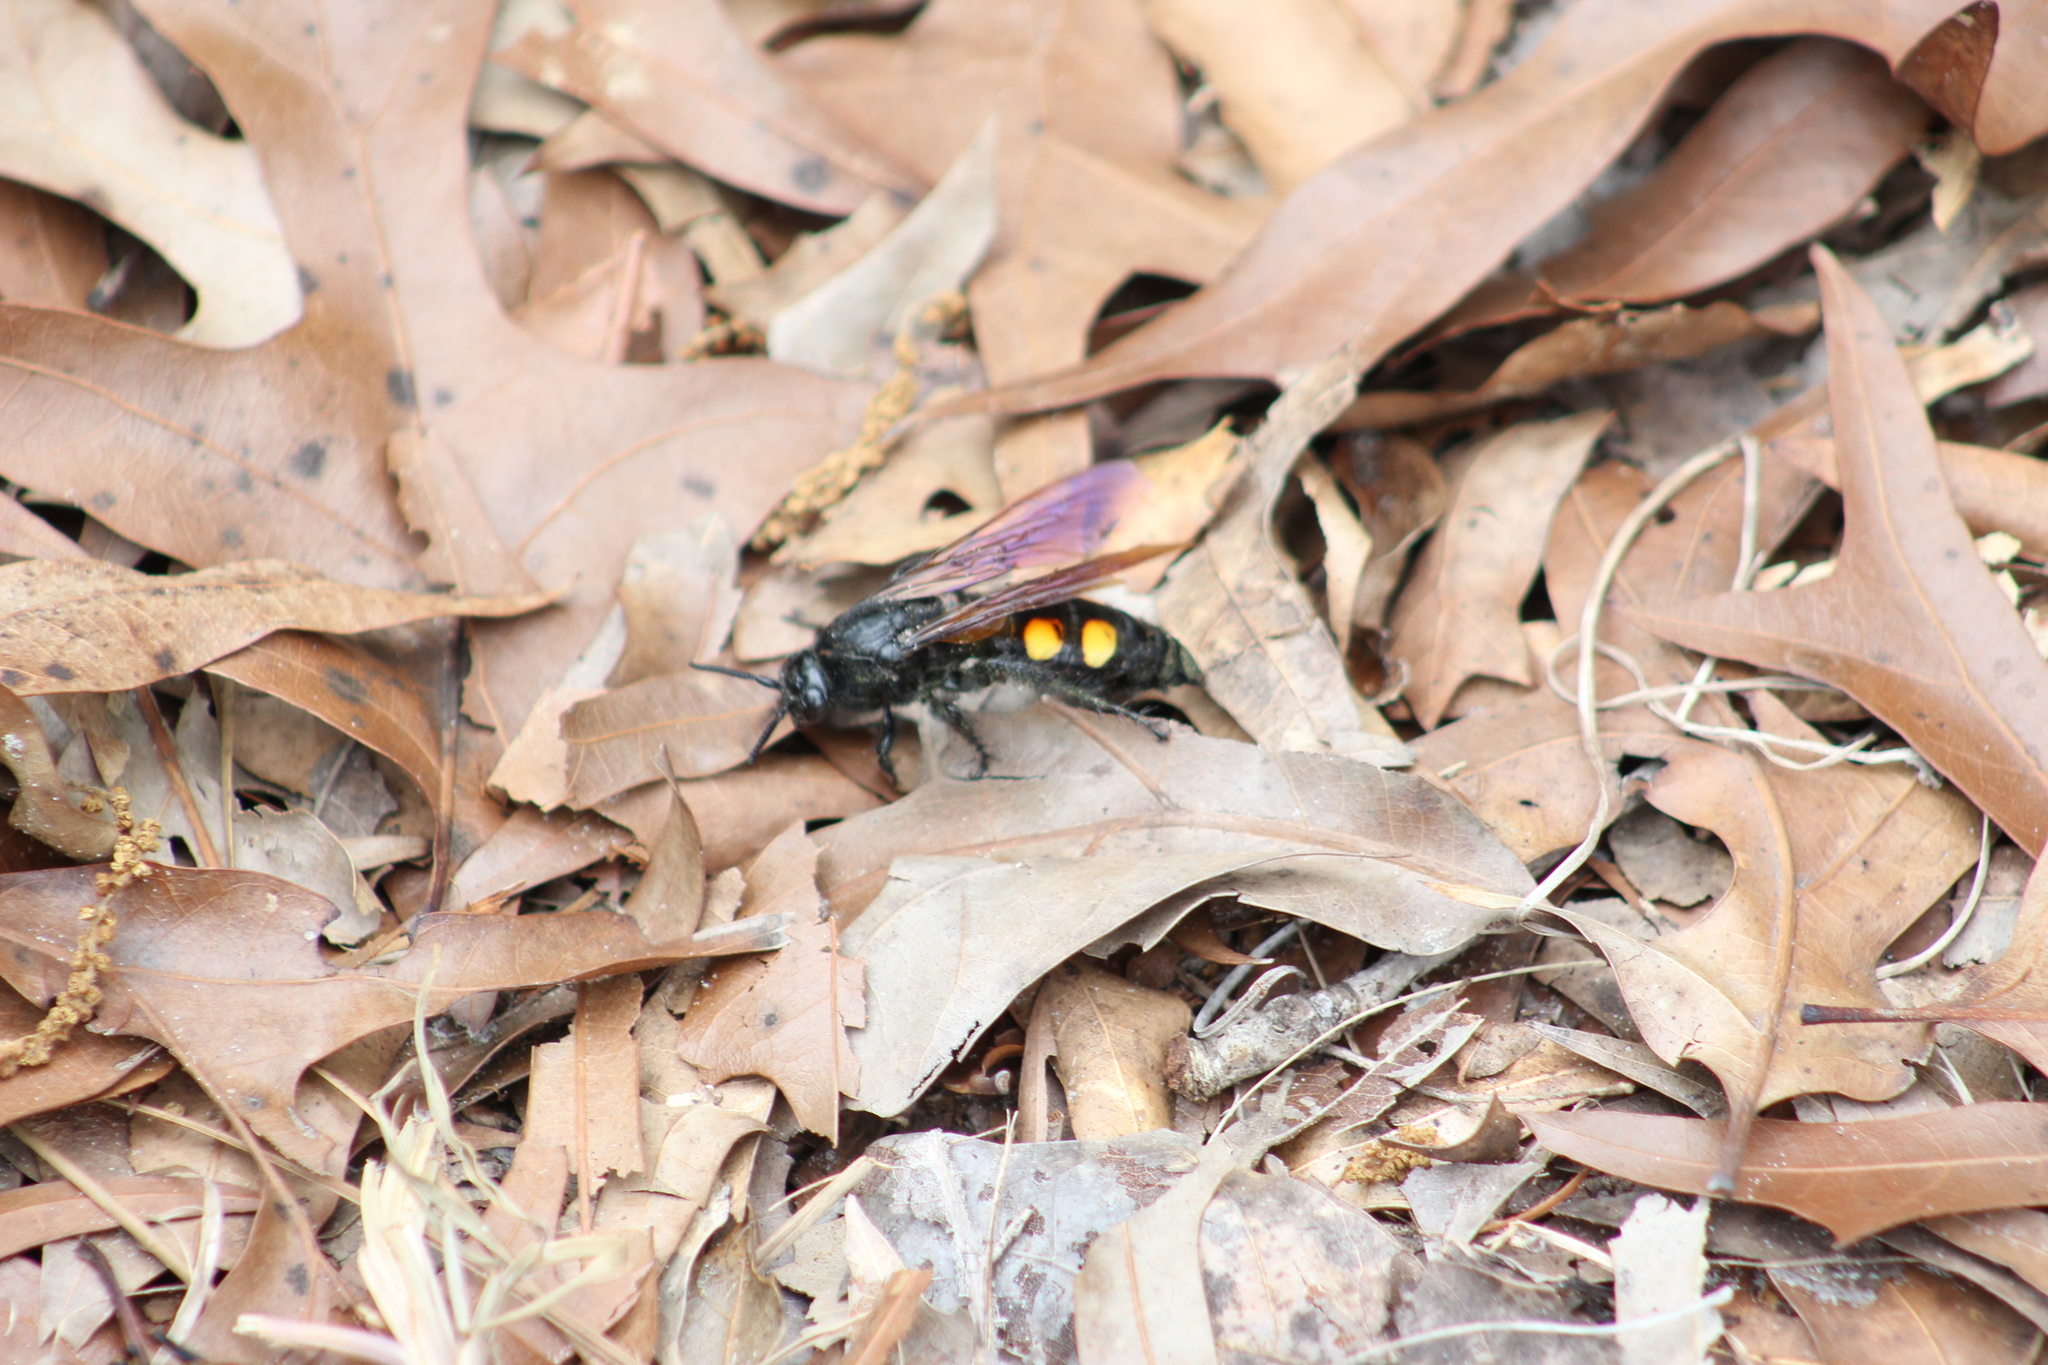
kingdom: Animalia
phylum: Arthropoda
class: Insecta
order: Hymenoptera
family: Scoliidae
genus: Pygodasis
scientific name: Pygodasis
